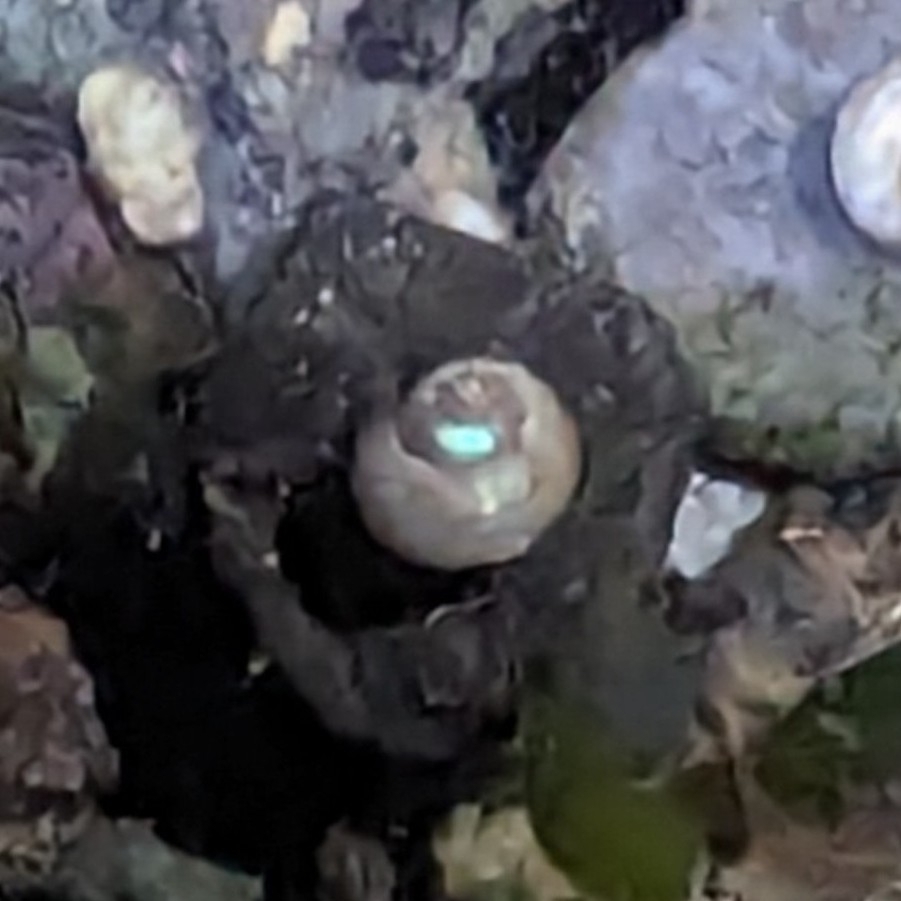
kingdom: Animalia
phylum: Mollusca
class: Gastropoda
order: Littorinimorpha
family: Naticidae
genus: Neverita
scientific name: Neverita lewisii
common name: Lewis' moonsnail
